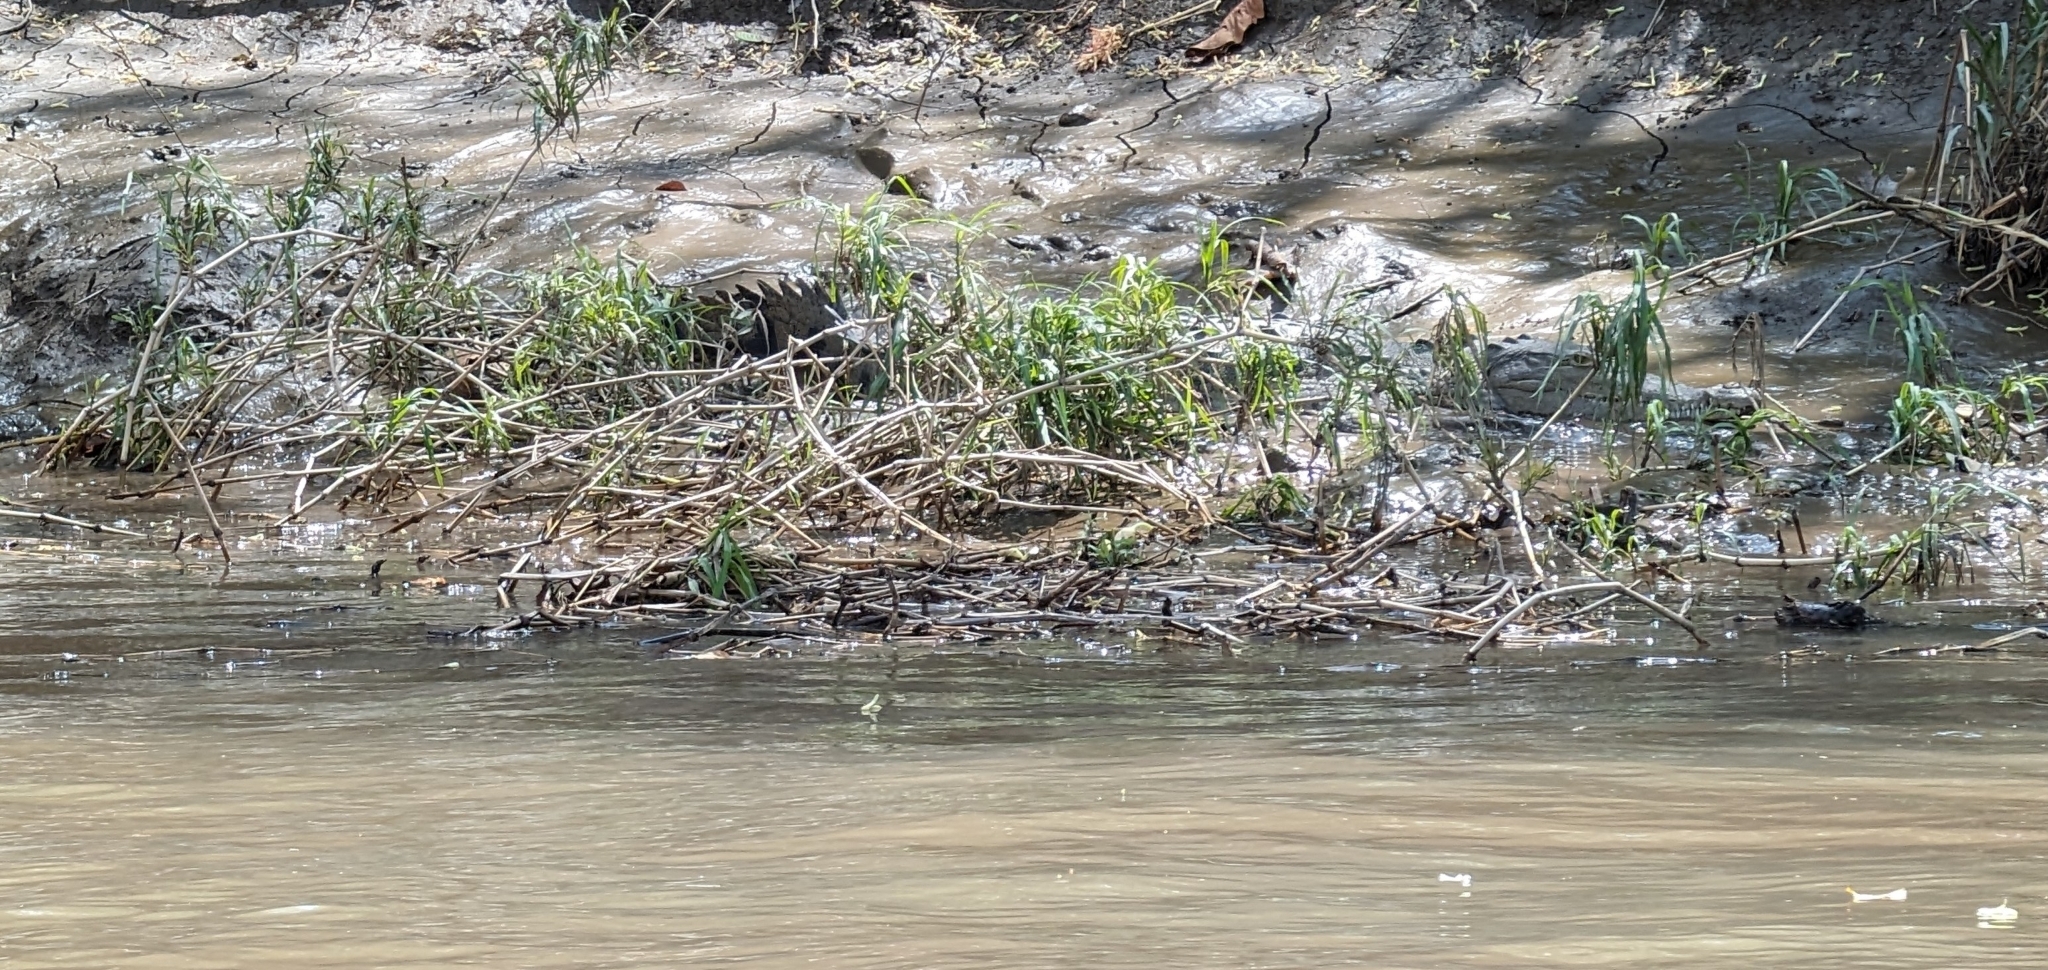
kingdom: Animalia
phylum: Chordata
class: Crocodylia
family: Crocodylidae
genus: Crocodylus
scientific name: Crocodylus acutus
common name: American crocodile
